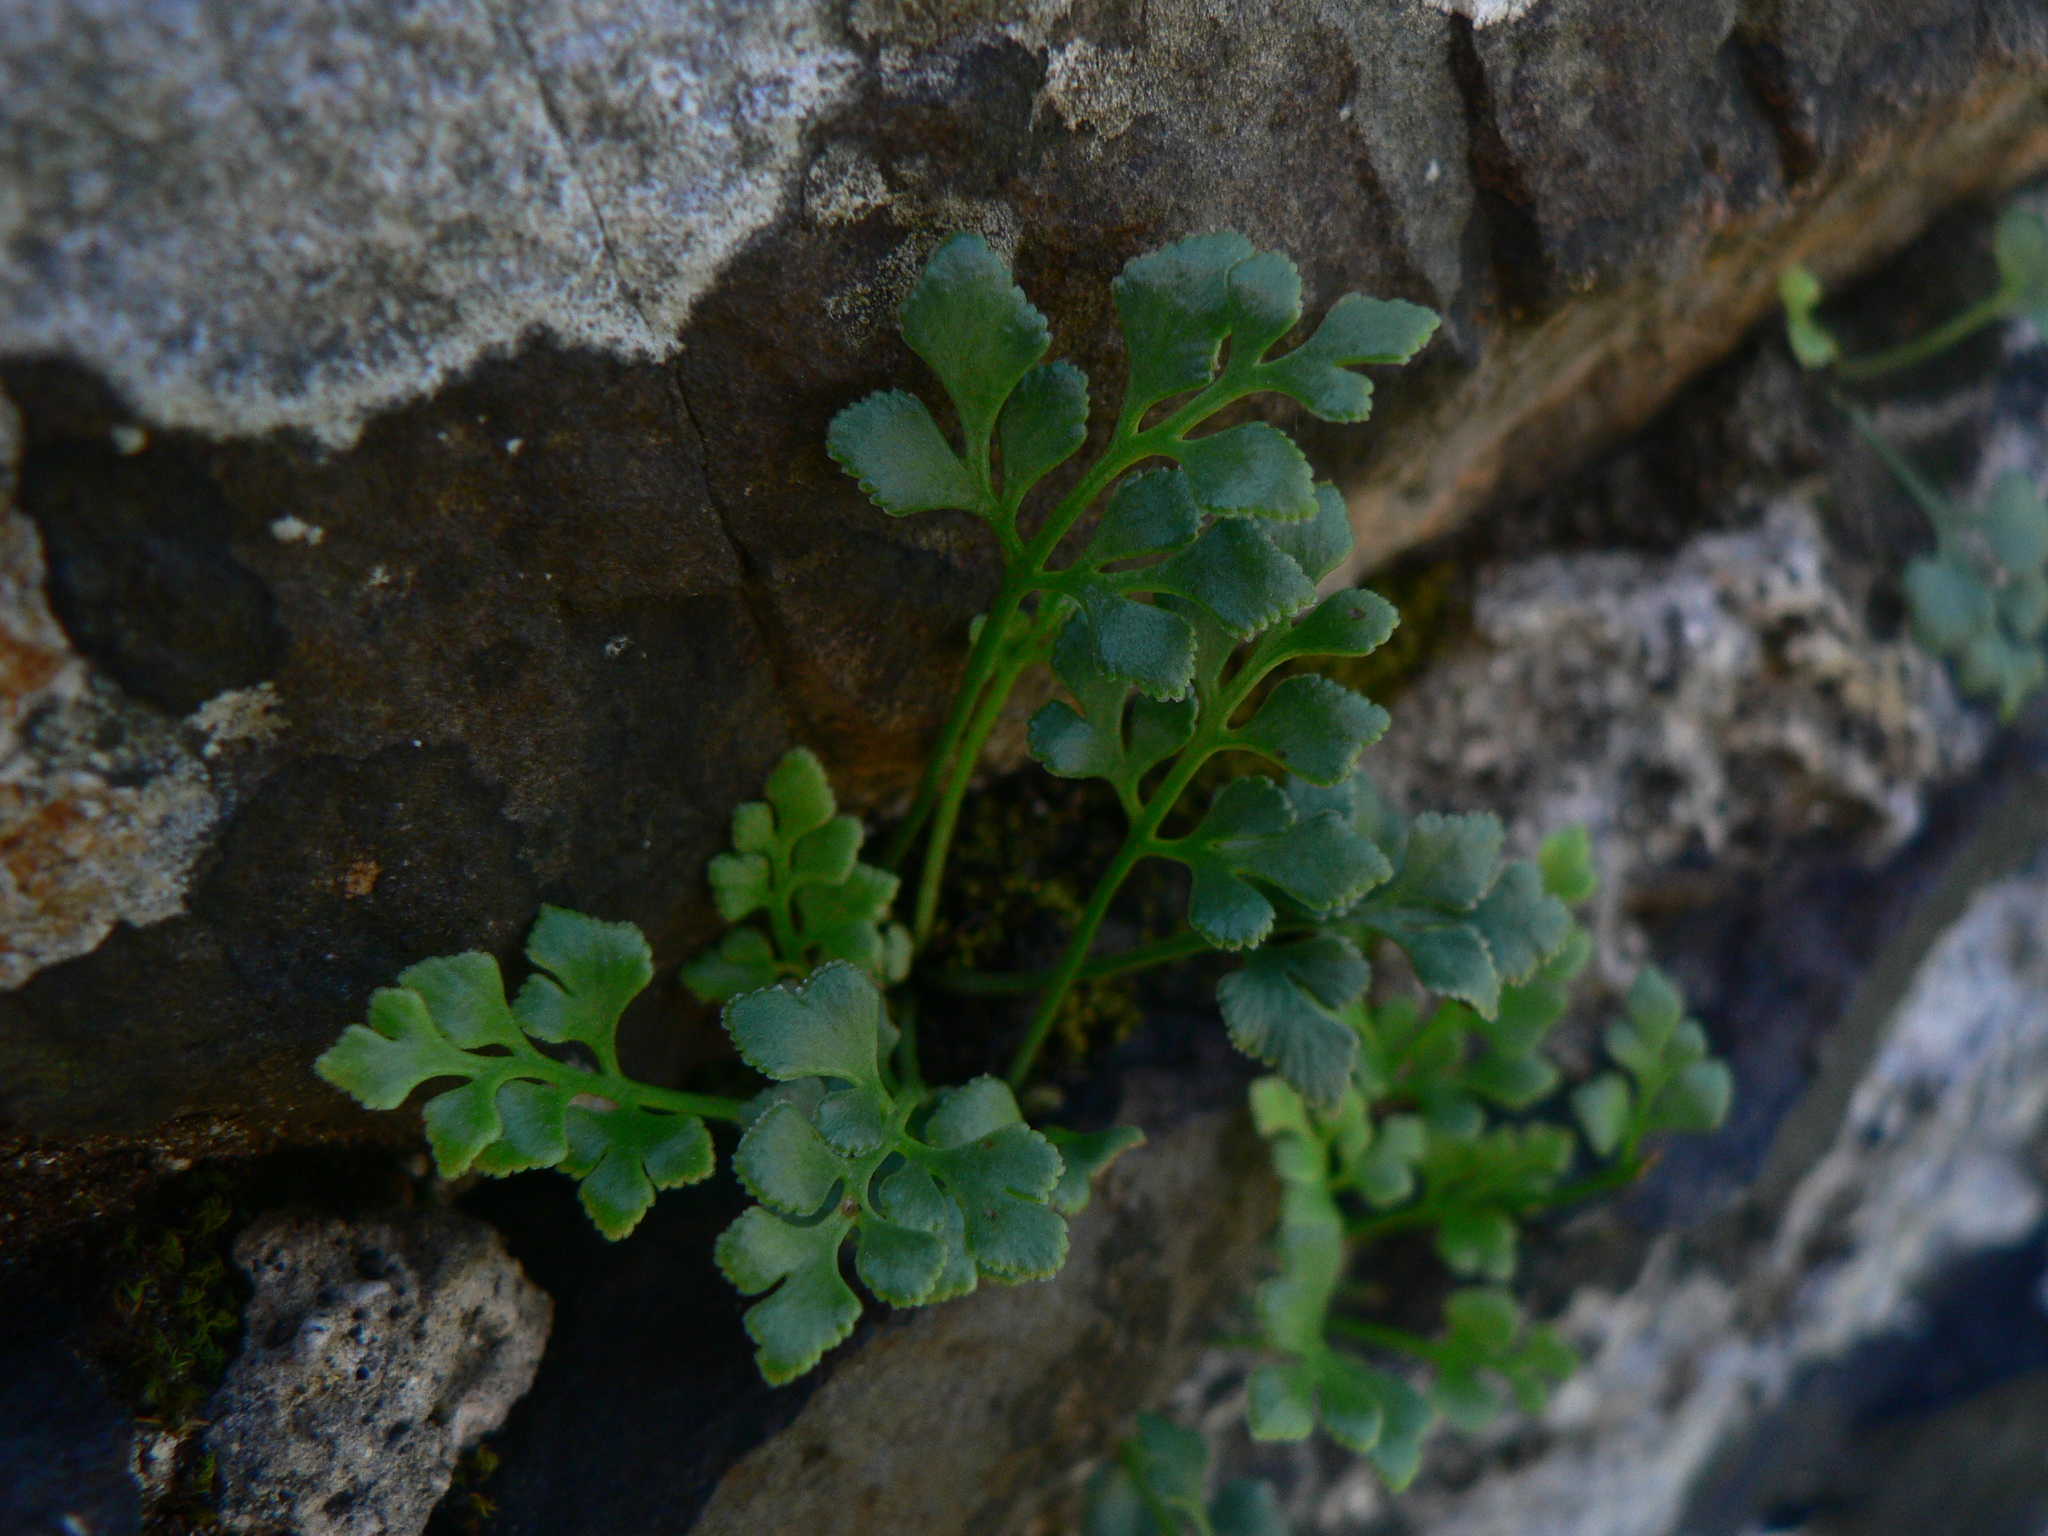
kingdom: Plantae
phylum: Tracheophyta
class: Polypodiopsida
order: Polypodiales
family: Aspleniaceae
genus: Asplenium
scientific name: Asplenium ruta-muraria
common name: Wall-rue
